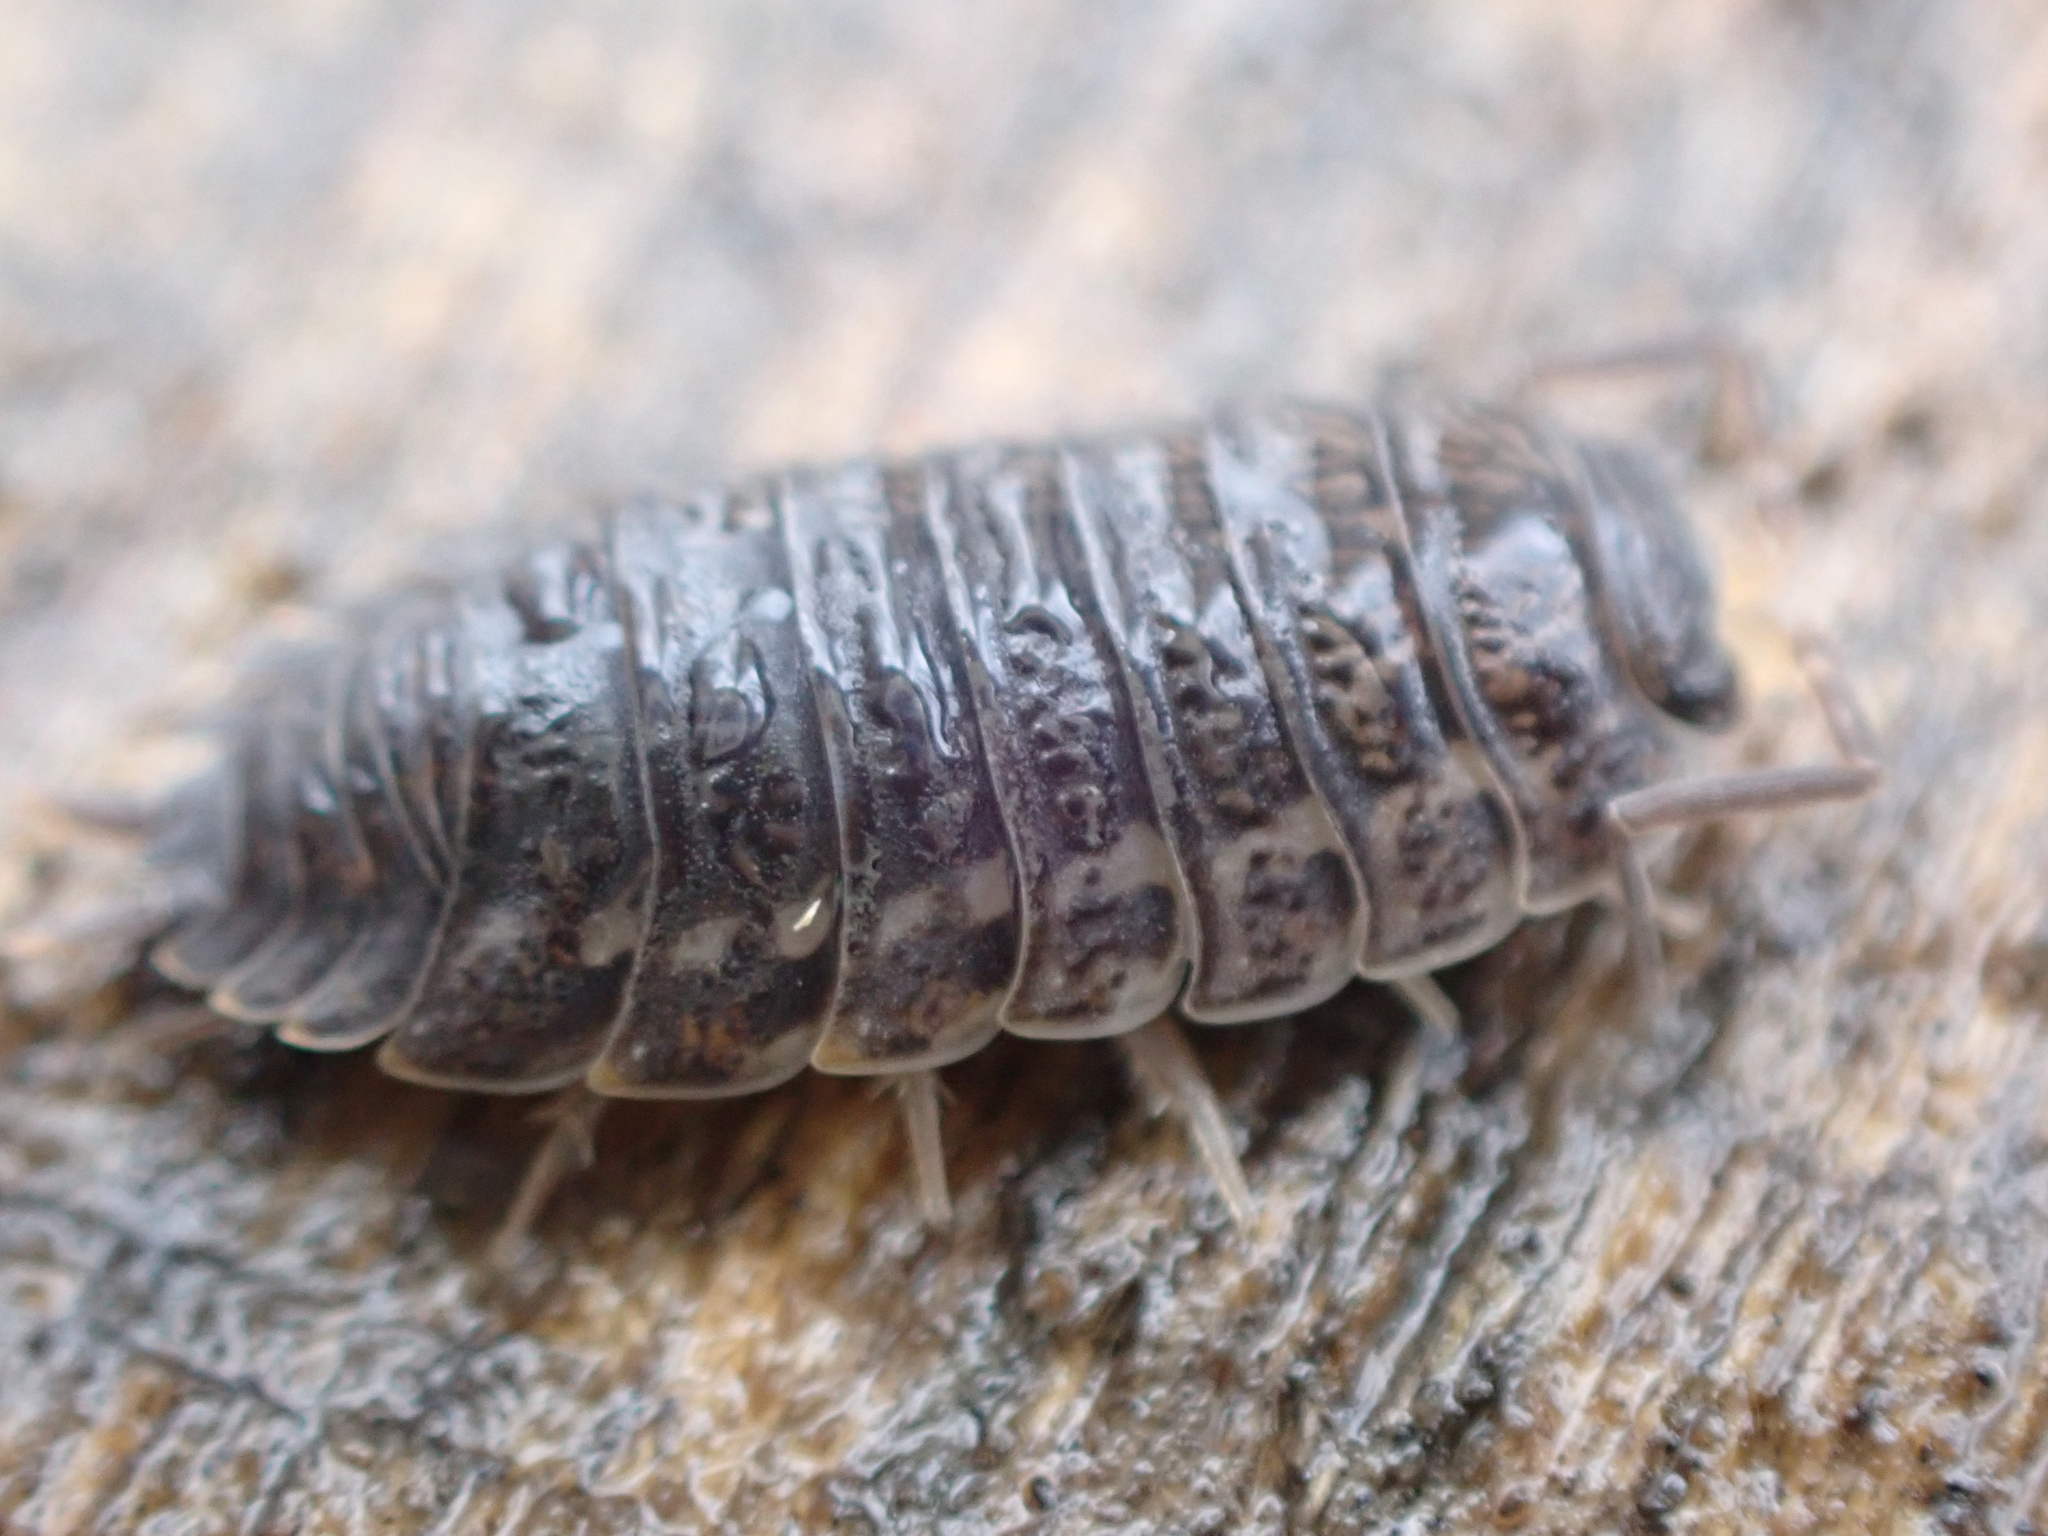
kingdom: Animalia
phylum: Arthropoda
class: Malacostraca
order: Isopoda
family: Trachelipodidae
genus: Trachelipus
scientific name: Trachelipus rathkii
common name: Isopod
